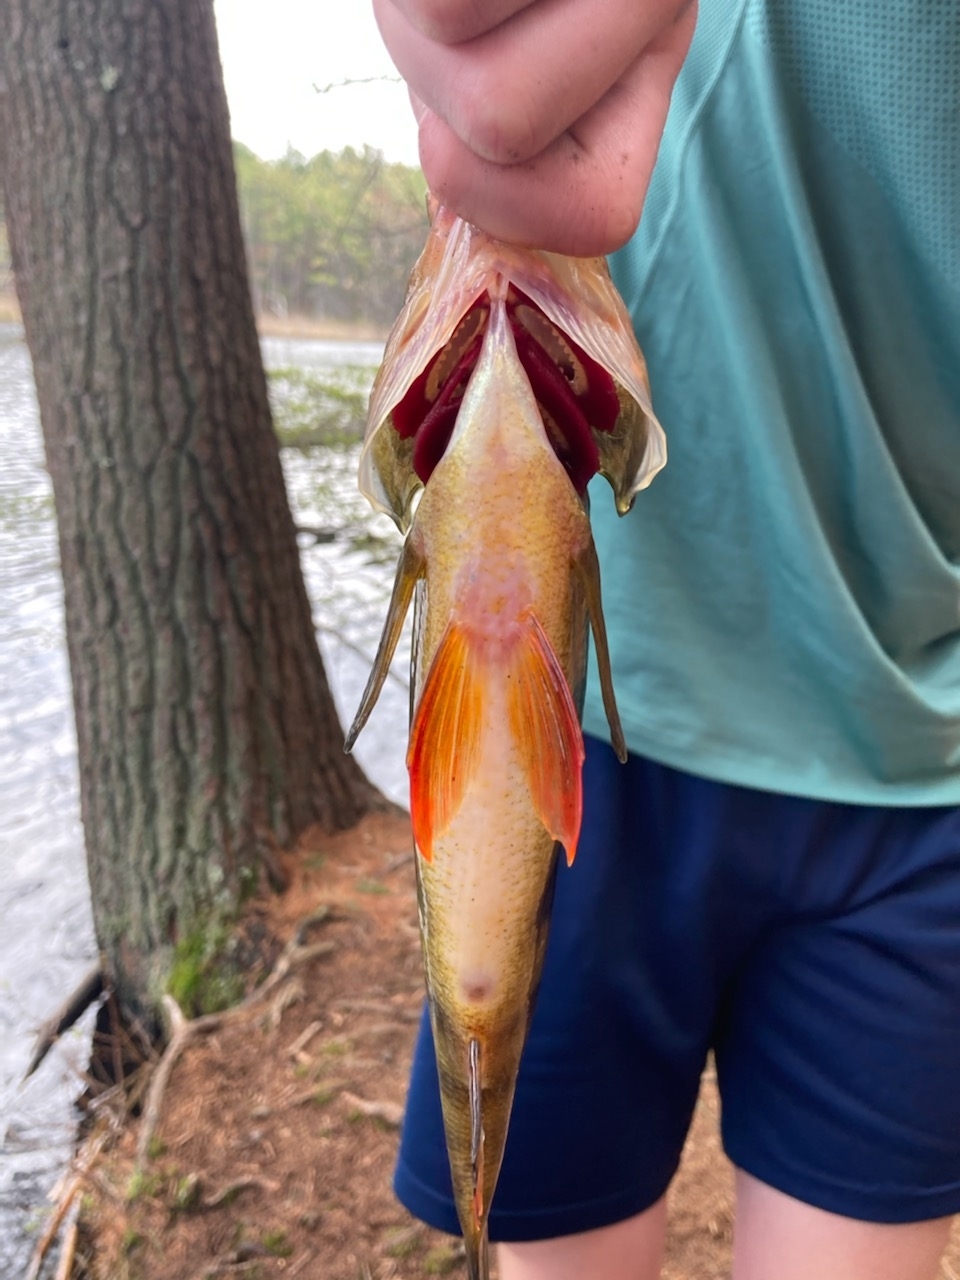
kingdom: Animalia
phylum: Chordata
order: Perciformes
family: Percidae
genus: Perca
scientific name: Perca flavescens
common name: Yellow perch
